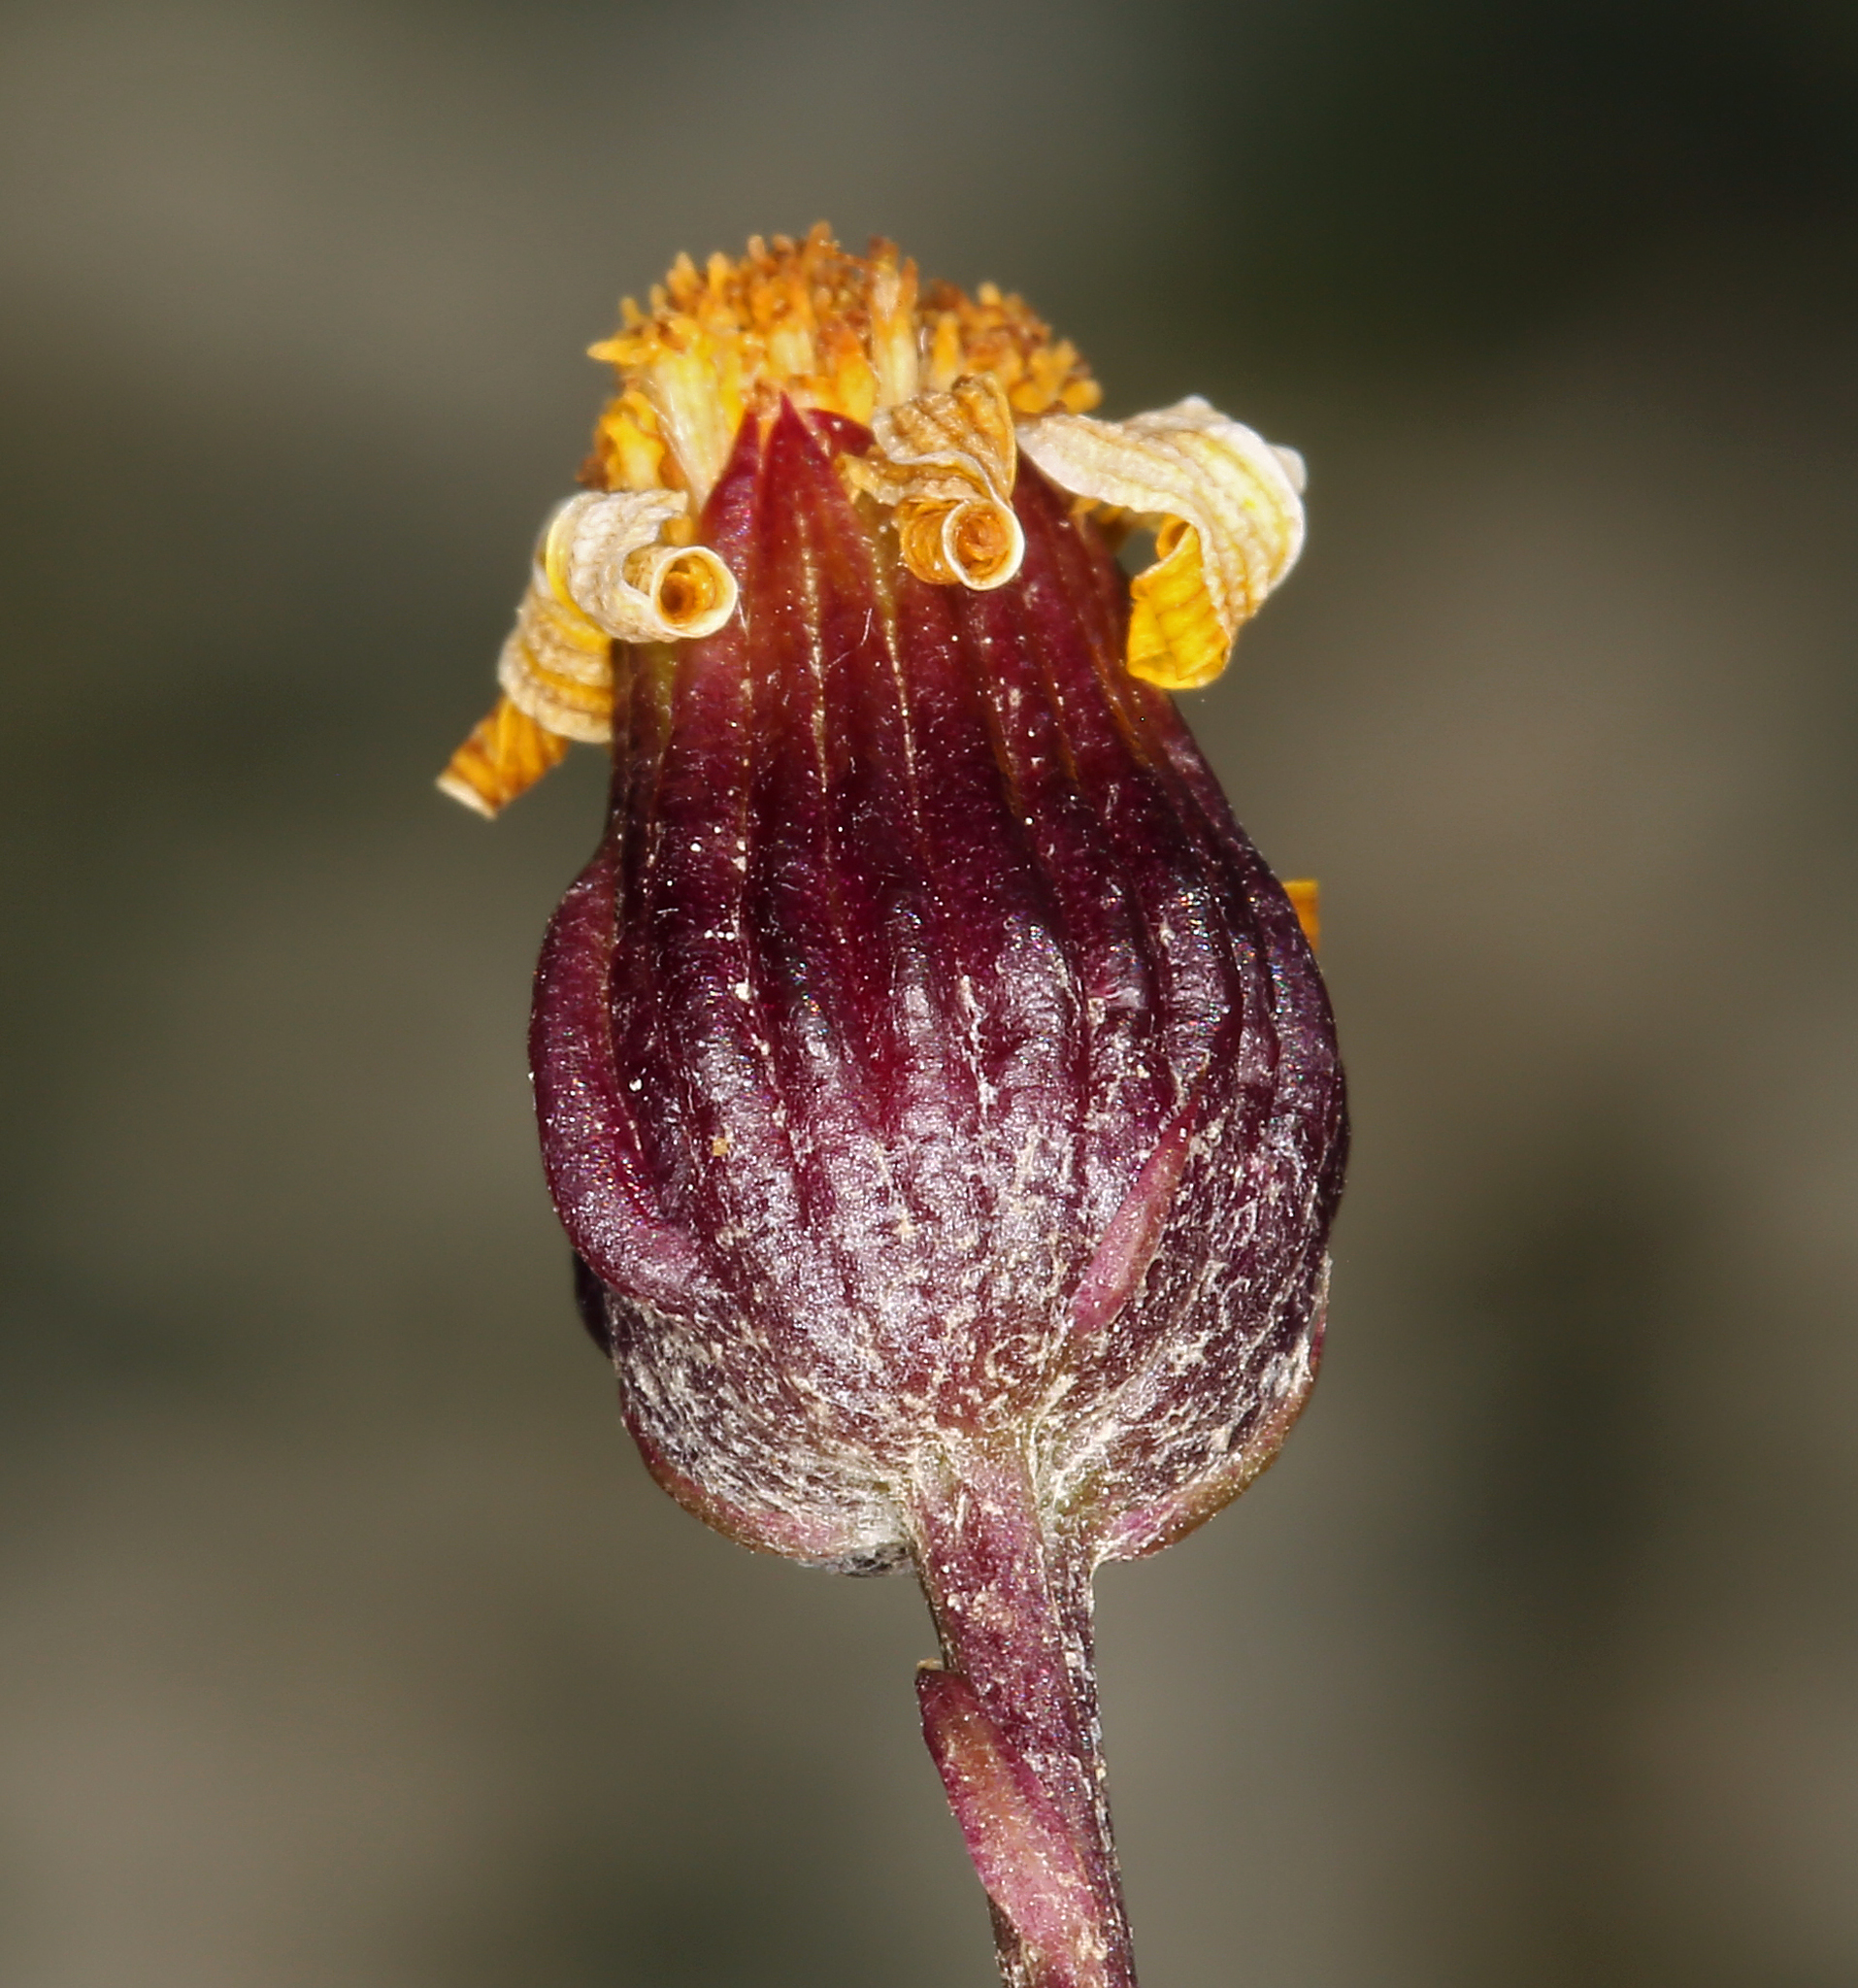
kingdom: Plantae
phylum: Tracheophyta
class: Magnoliopsida
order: Asterales
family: Asteraceae
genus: Packera
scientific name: Packera werneriifolia
